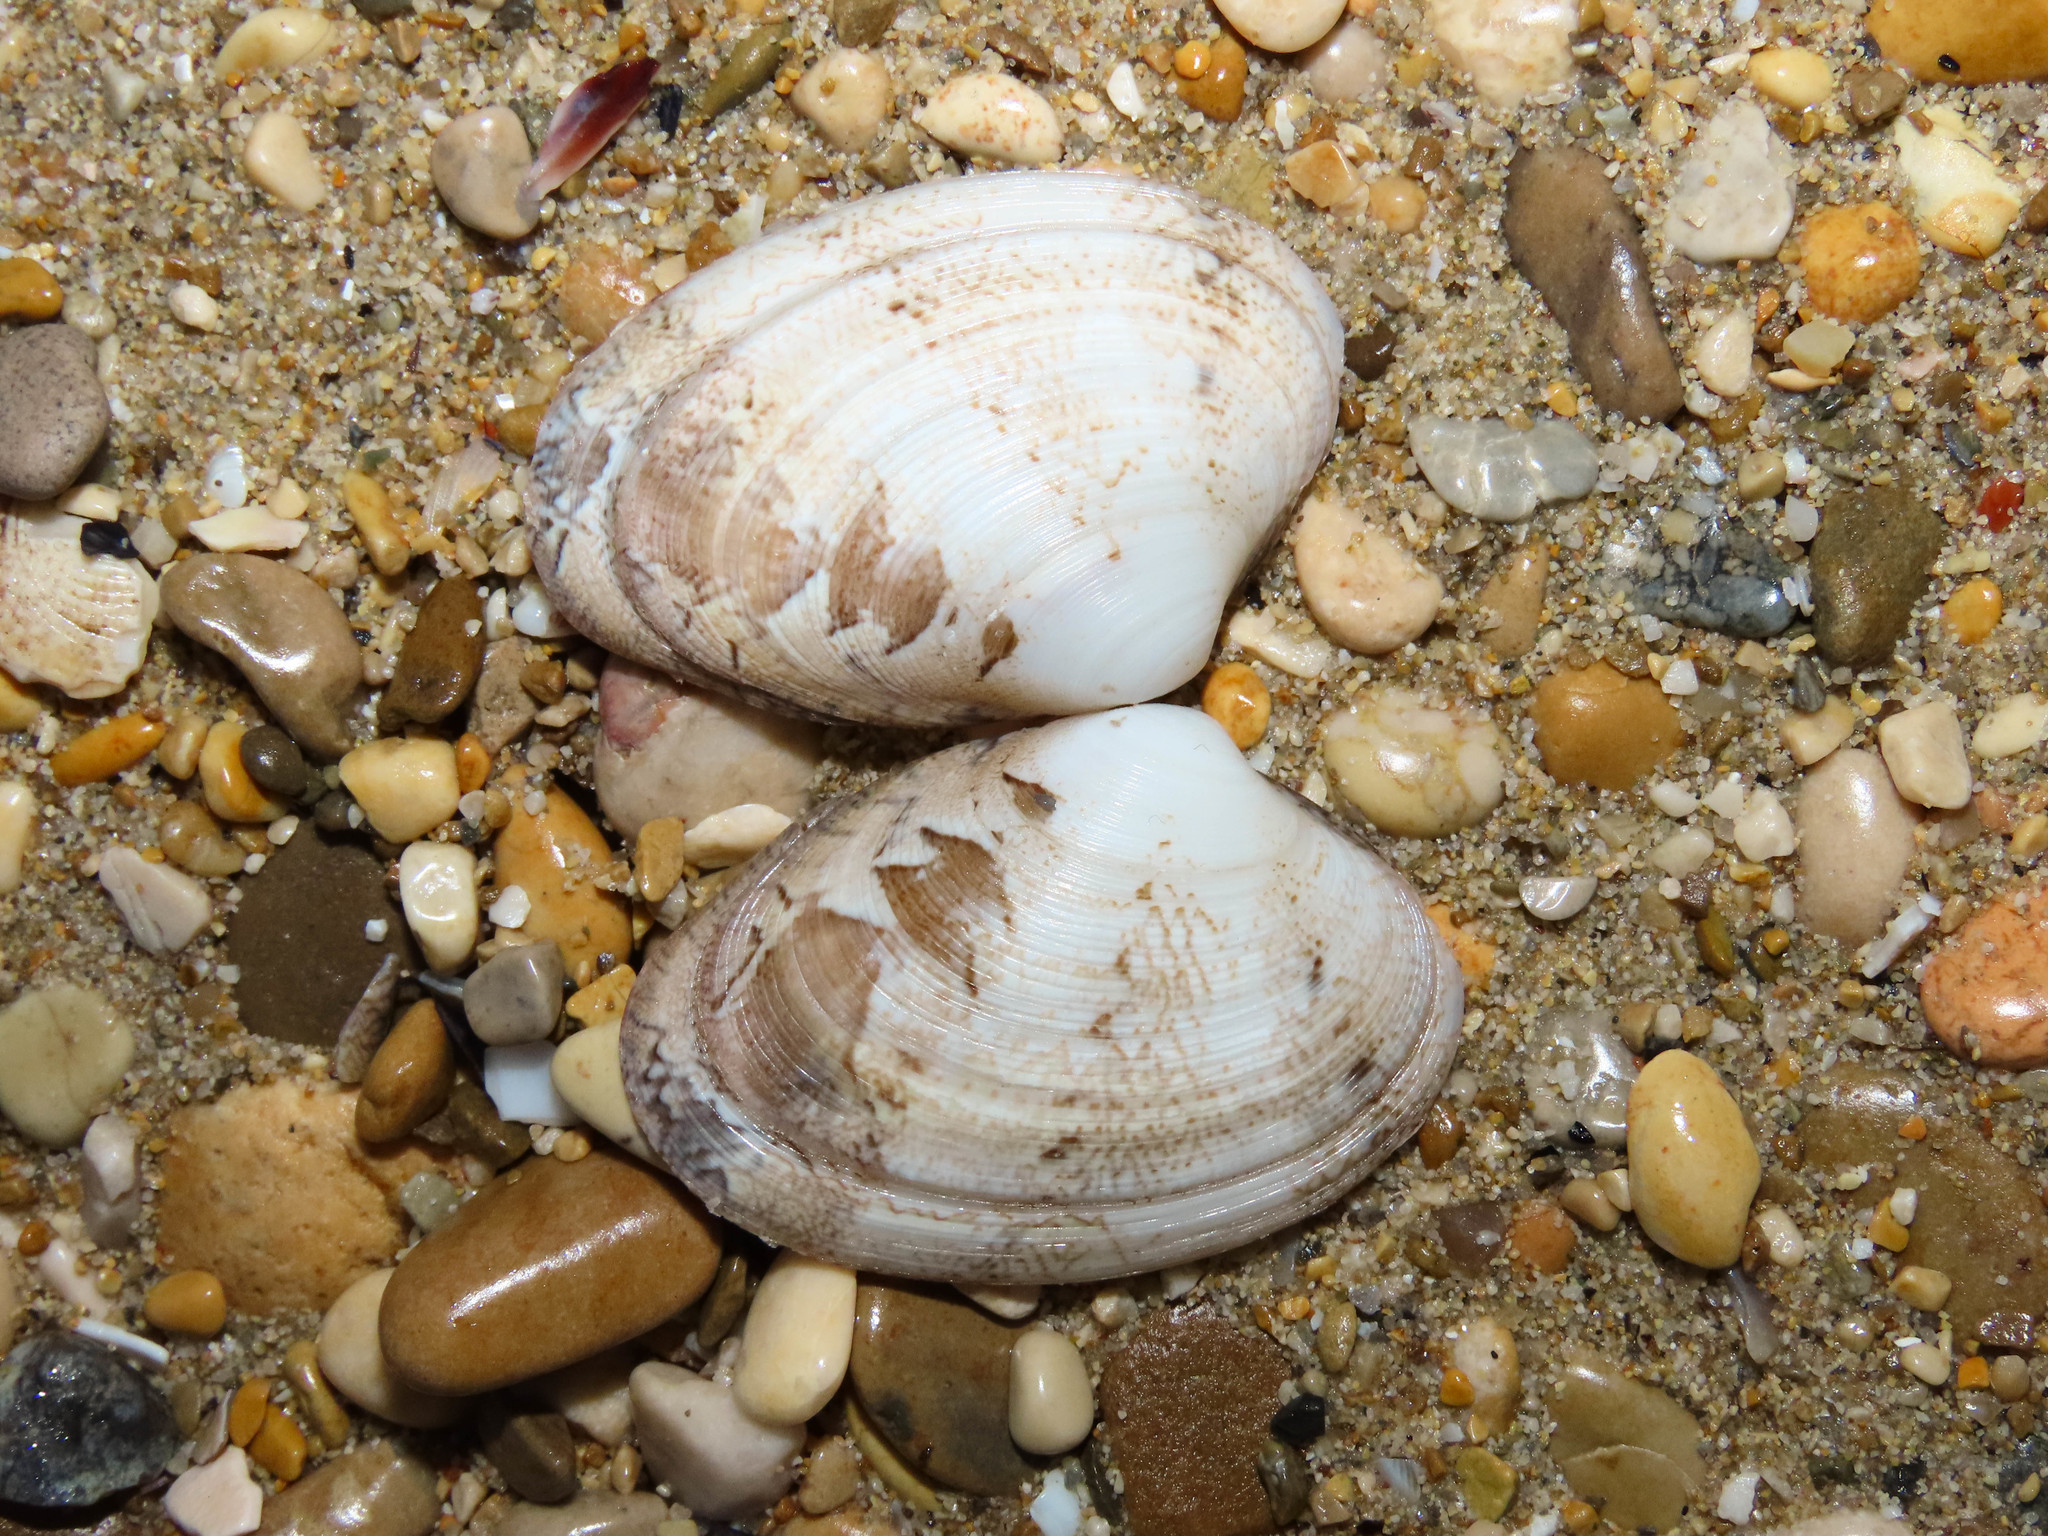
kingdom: Animalia
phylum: Mollusca
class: Bivalvia
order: Venerida
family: Veneridae
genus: Polititapes
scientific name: Polititapes aureus
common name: Golden carpet shell
